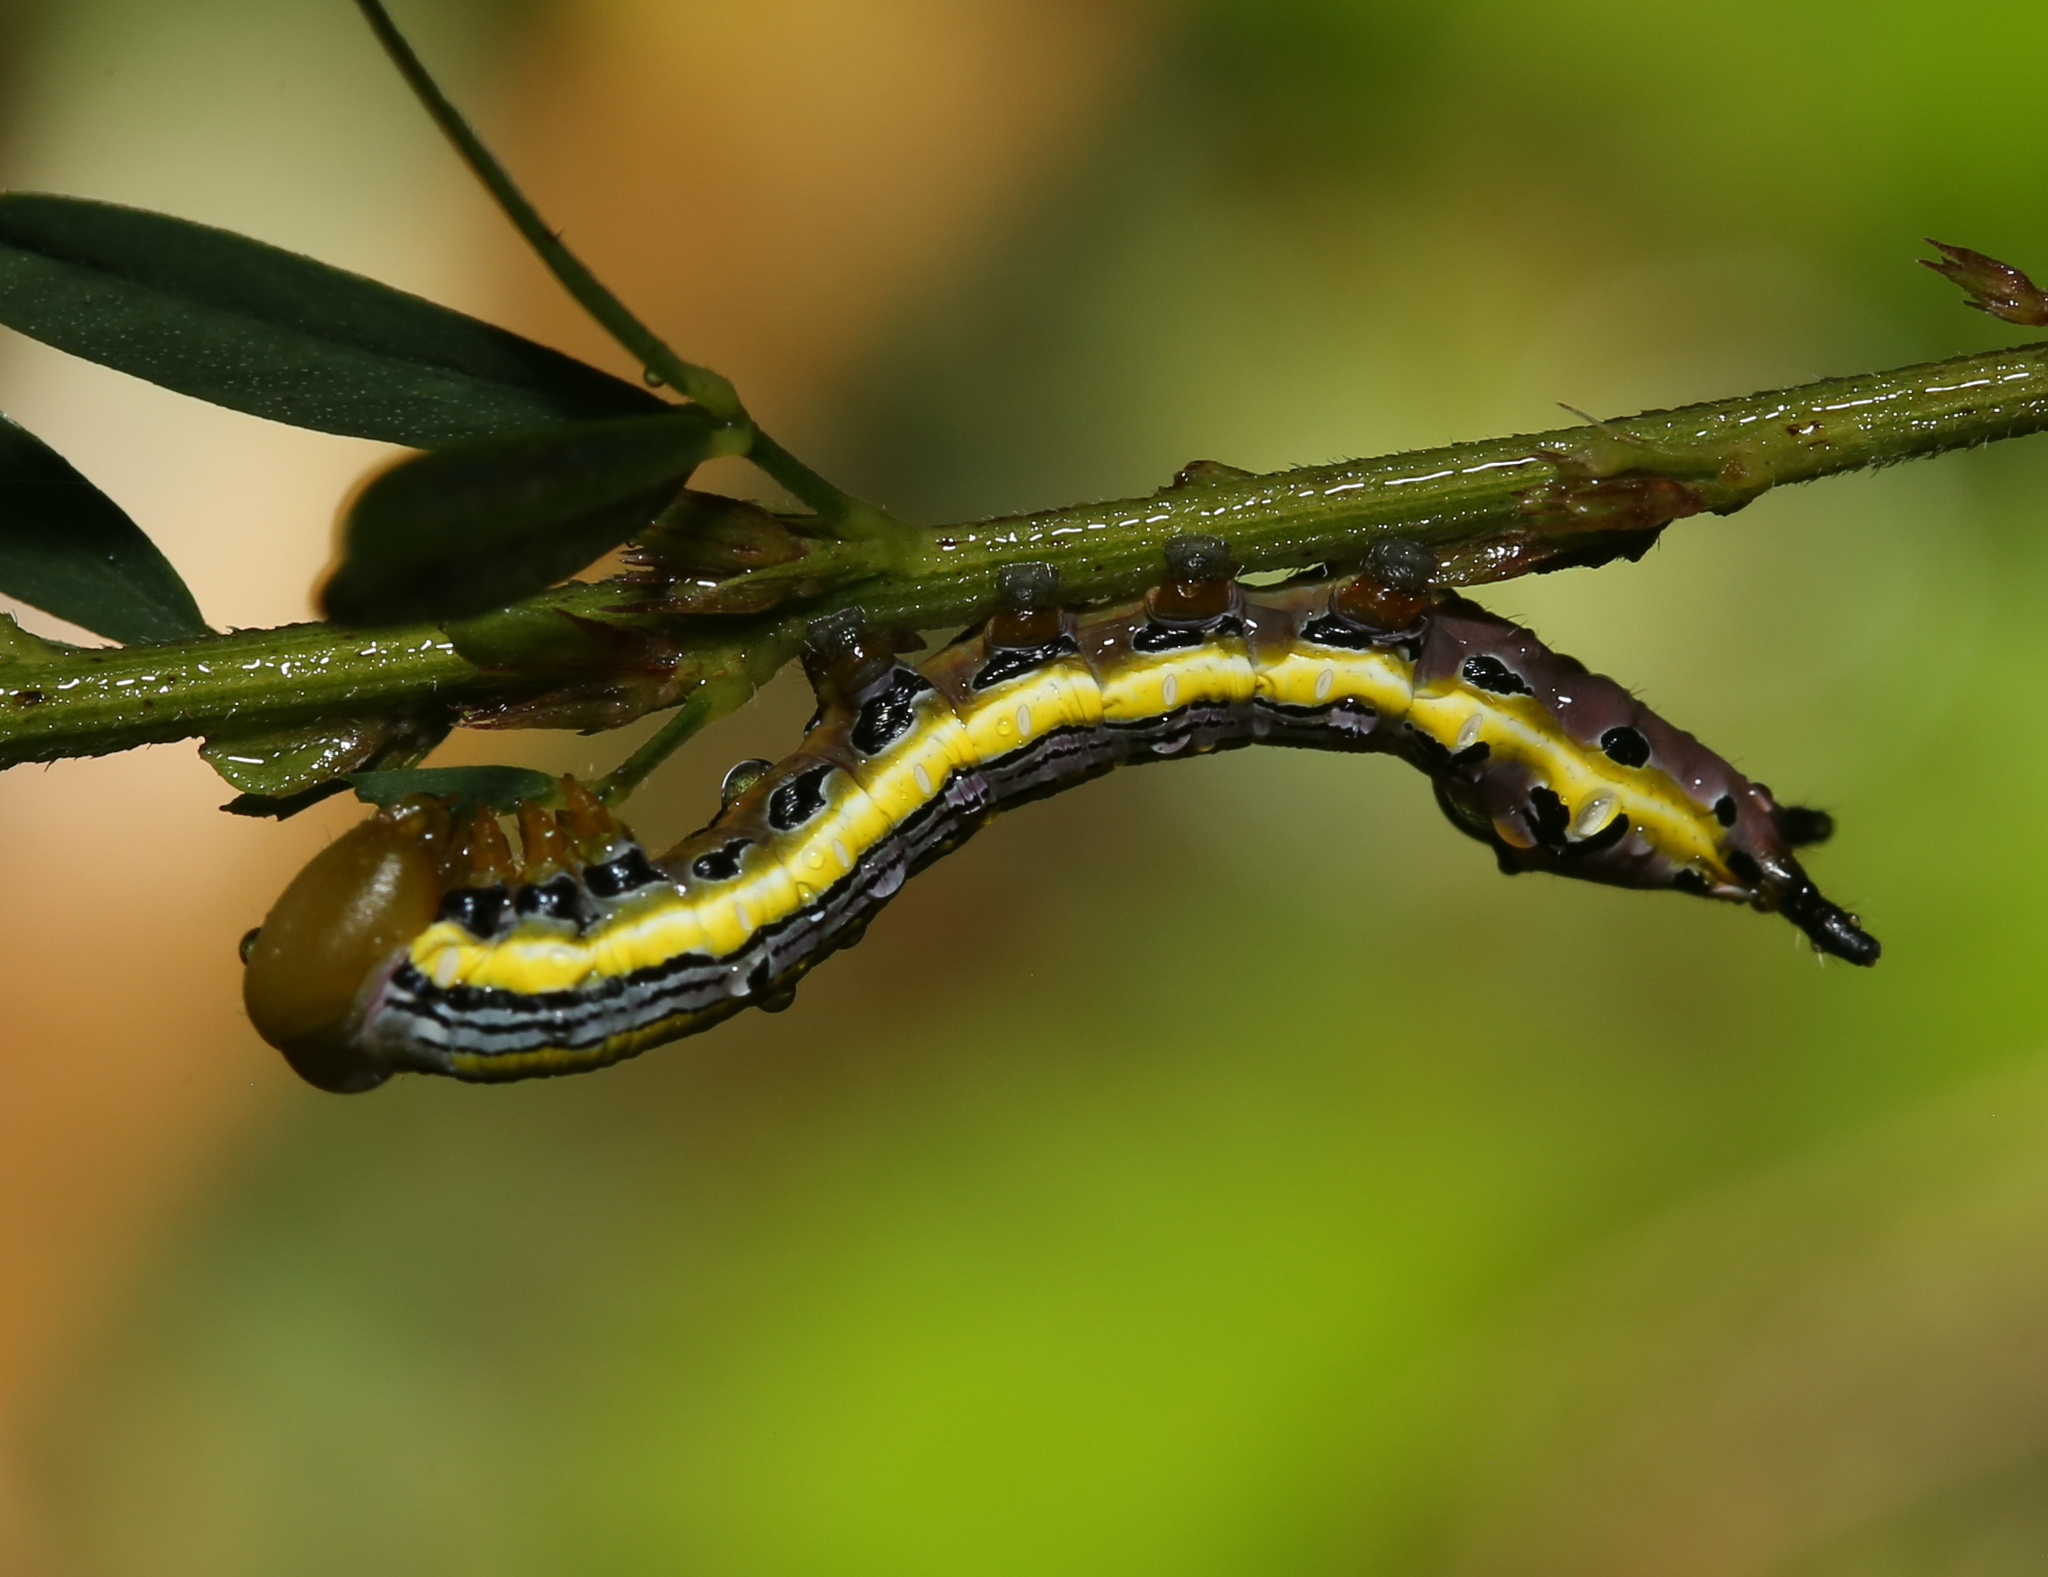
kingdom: Animalia
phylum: Arthropoda
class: Insecta
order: Lepidoptera
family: Notodontidae
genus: Dasylophia
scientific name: Dasylophia anguina
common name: Black-spotted prominent
